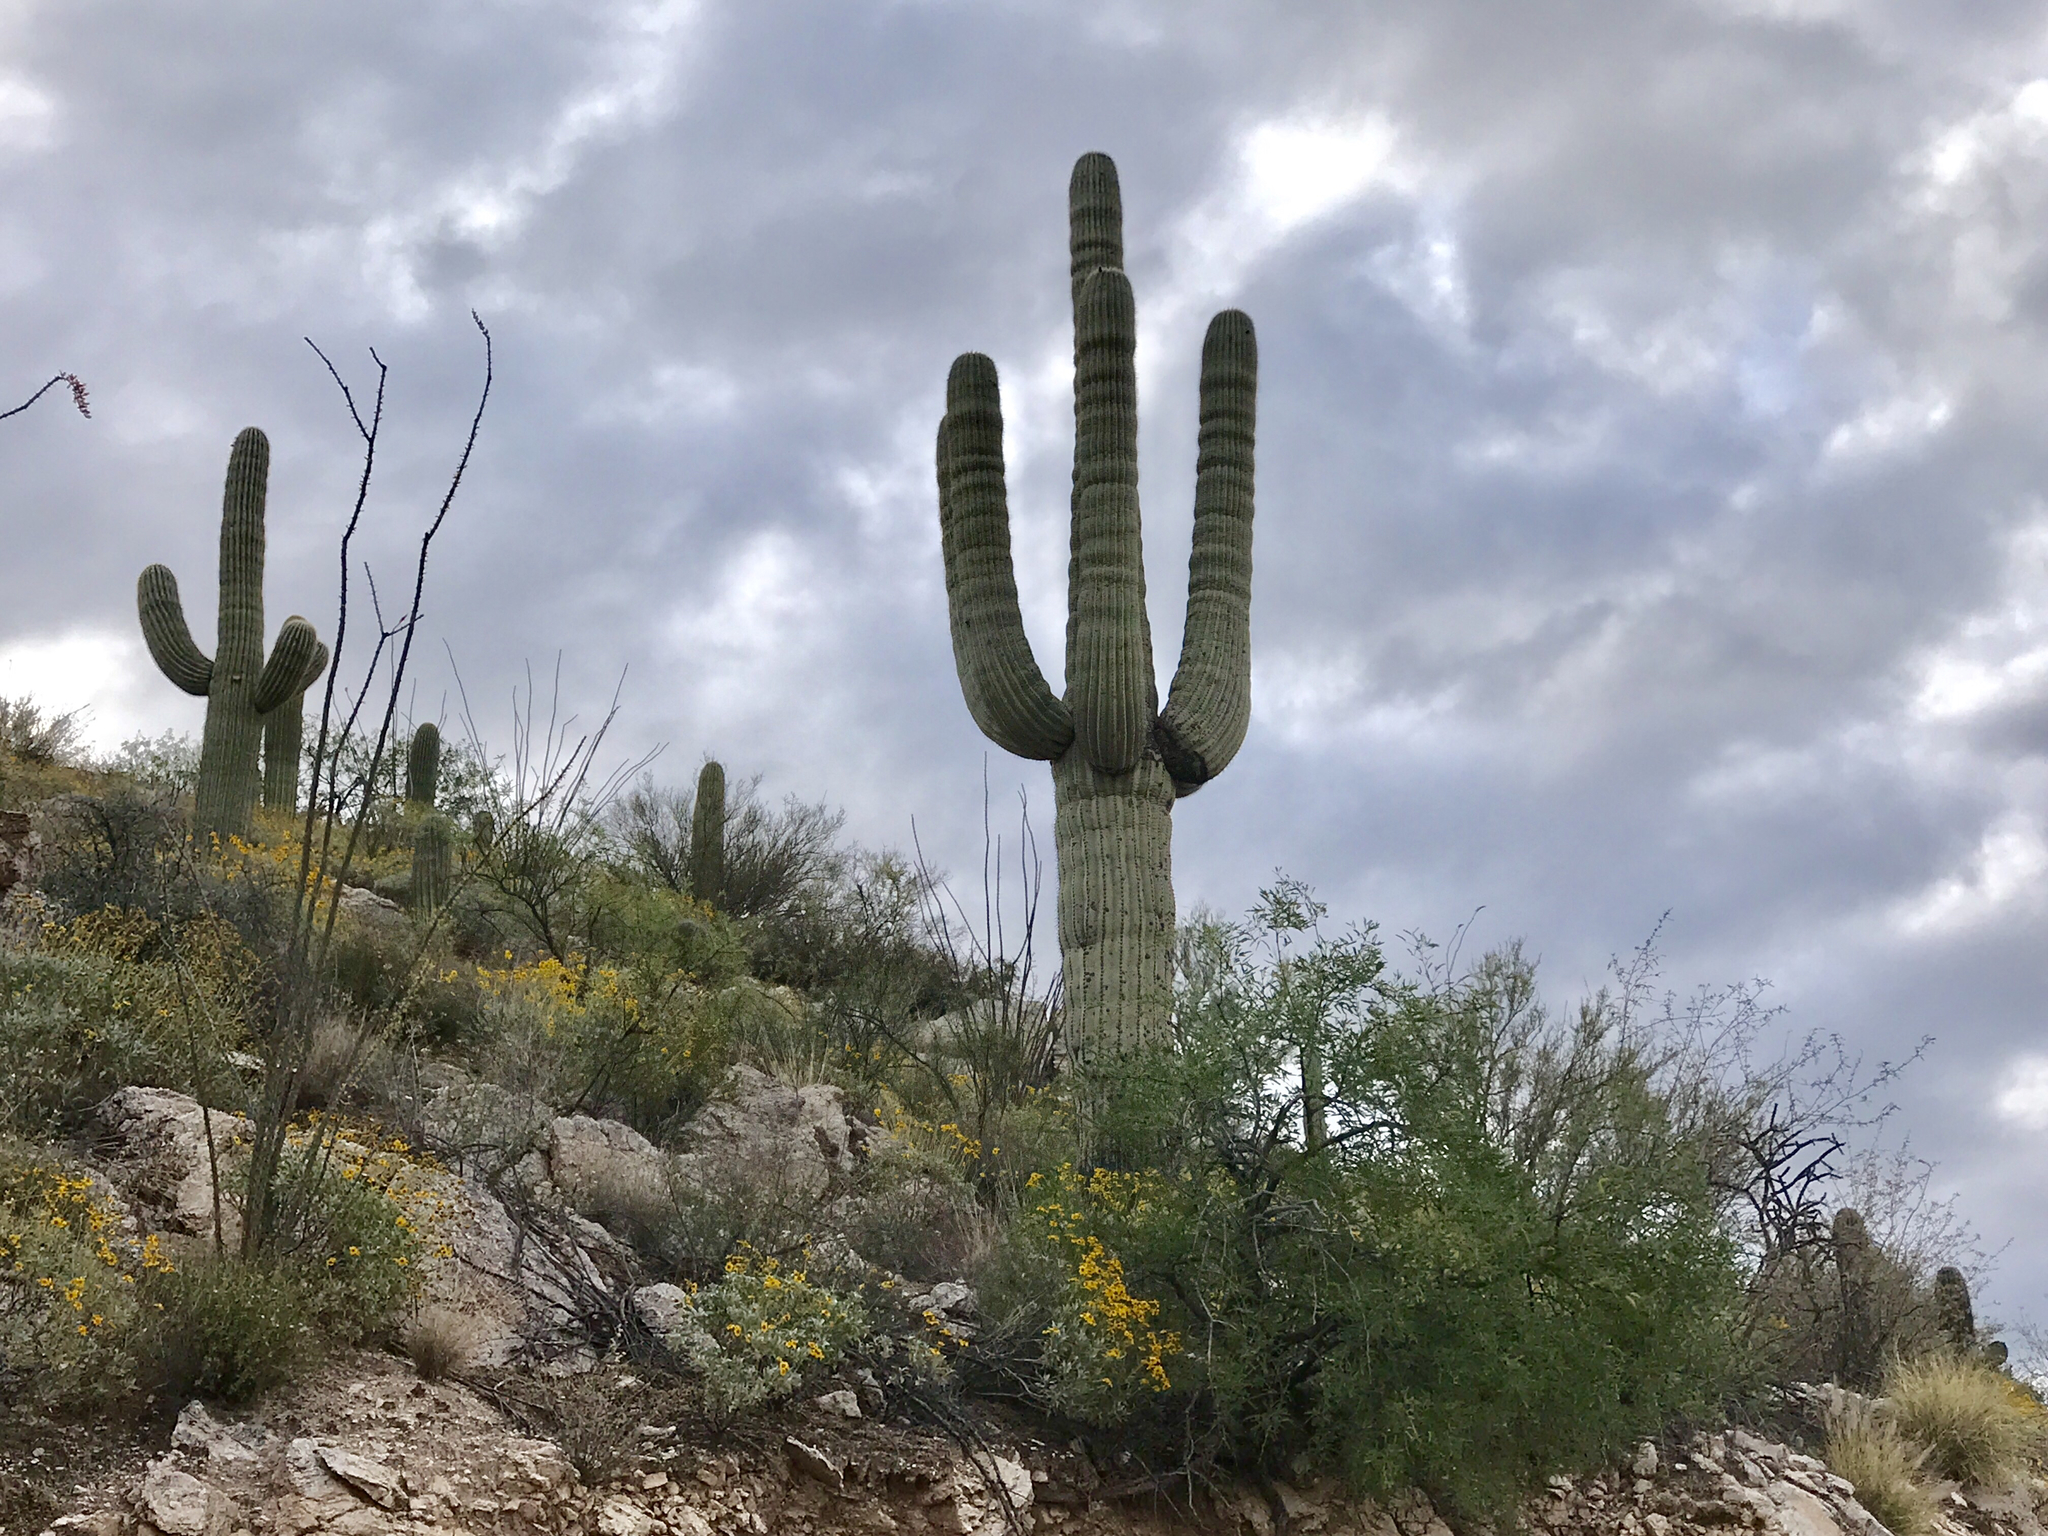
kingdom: Plantae
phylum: Tracheophyta
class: Magnoliopsida
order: Caryophyllales
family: Cactaceae
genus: Carnegiea
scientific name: Carnegiea gigantea
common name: Saguaro
